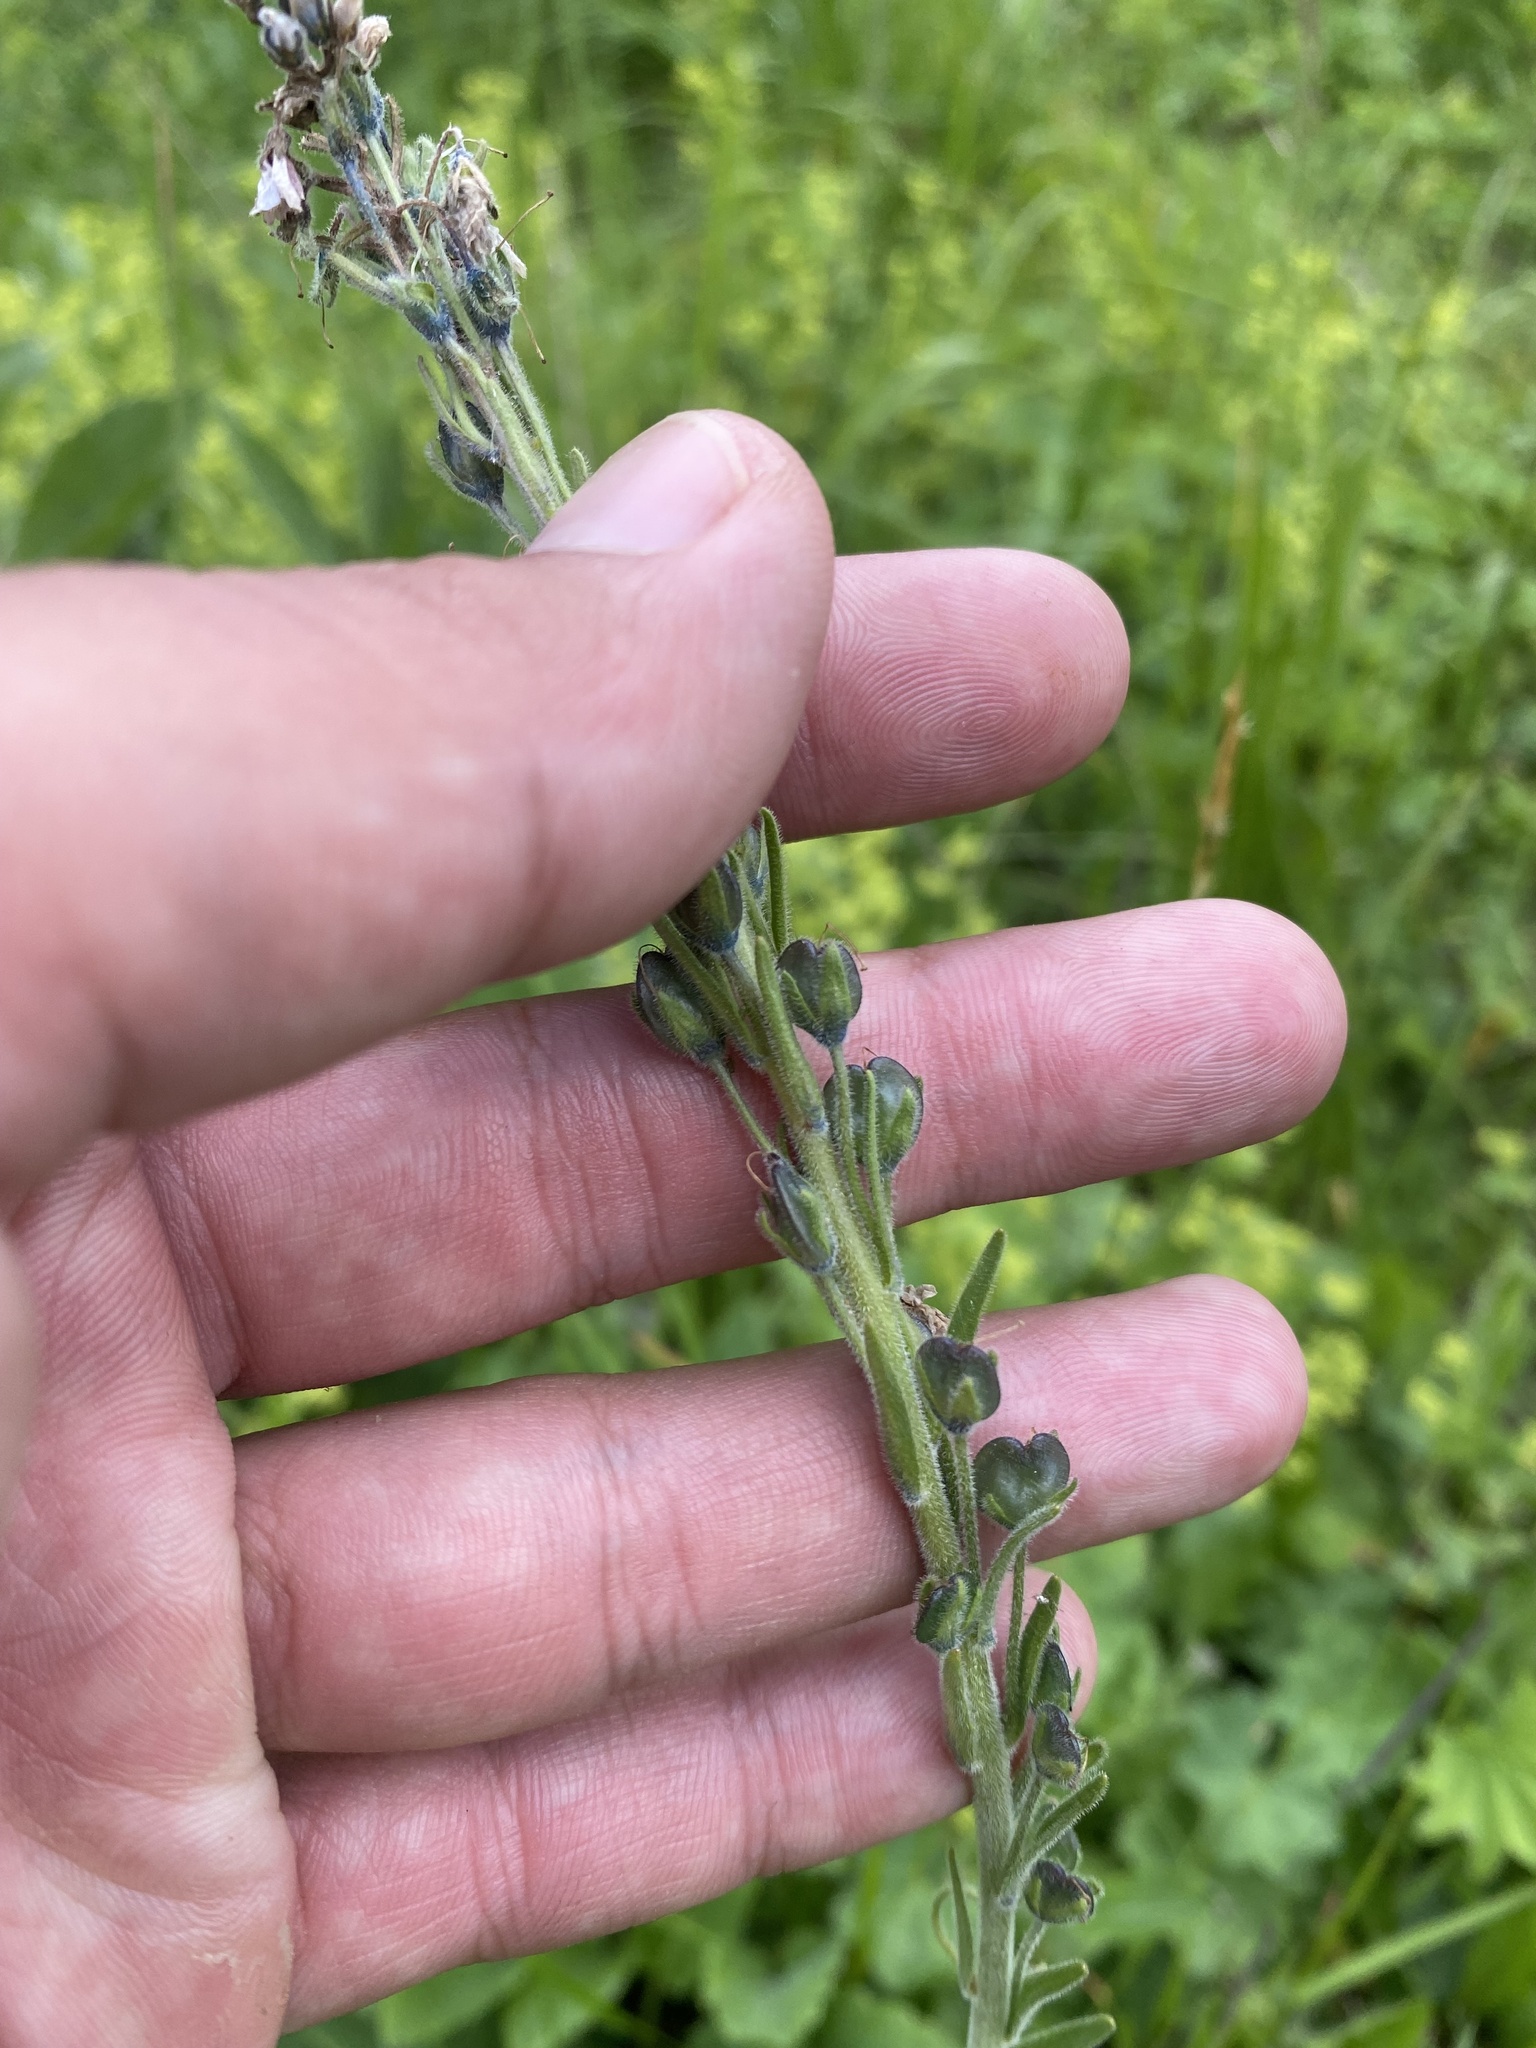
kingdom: Plantae
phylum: Tracheophyta
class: Magnoliopsida
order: Lamiales
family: Plantaginaceae
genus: Veronica
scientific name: Veronica gentianoides
